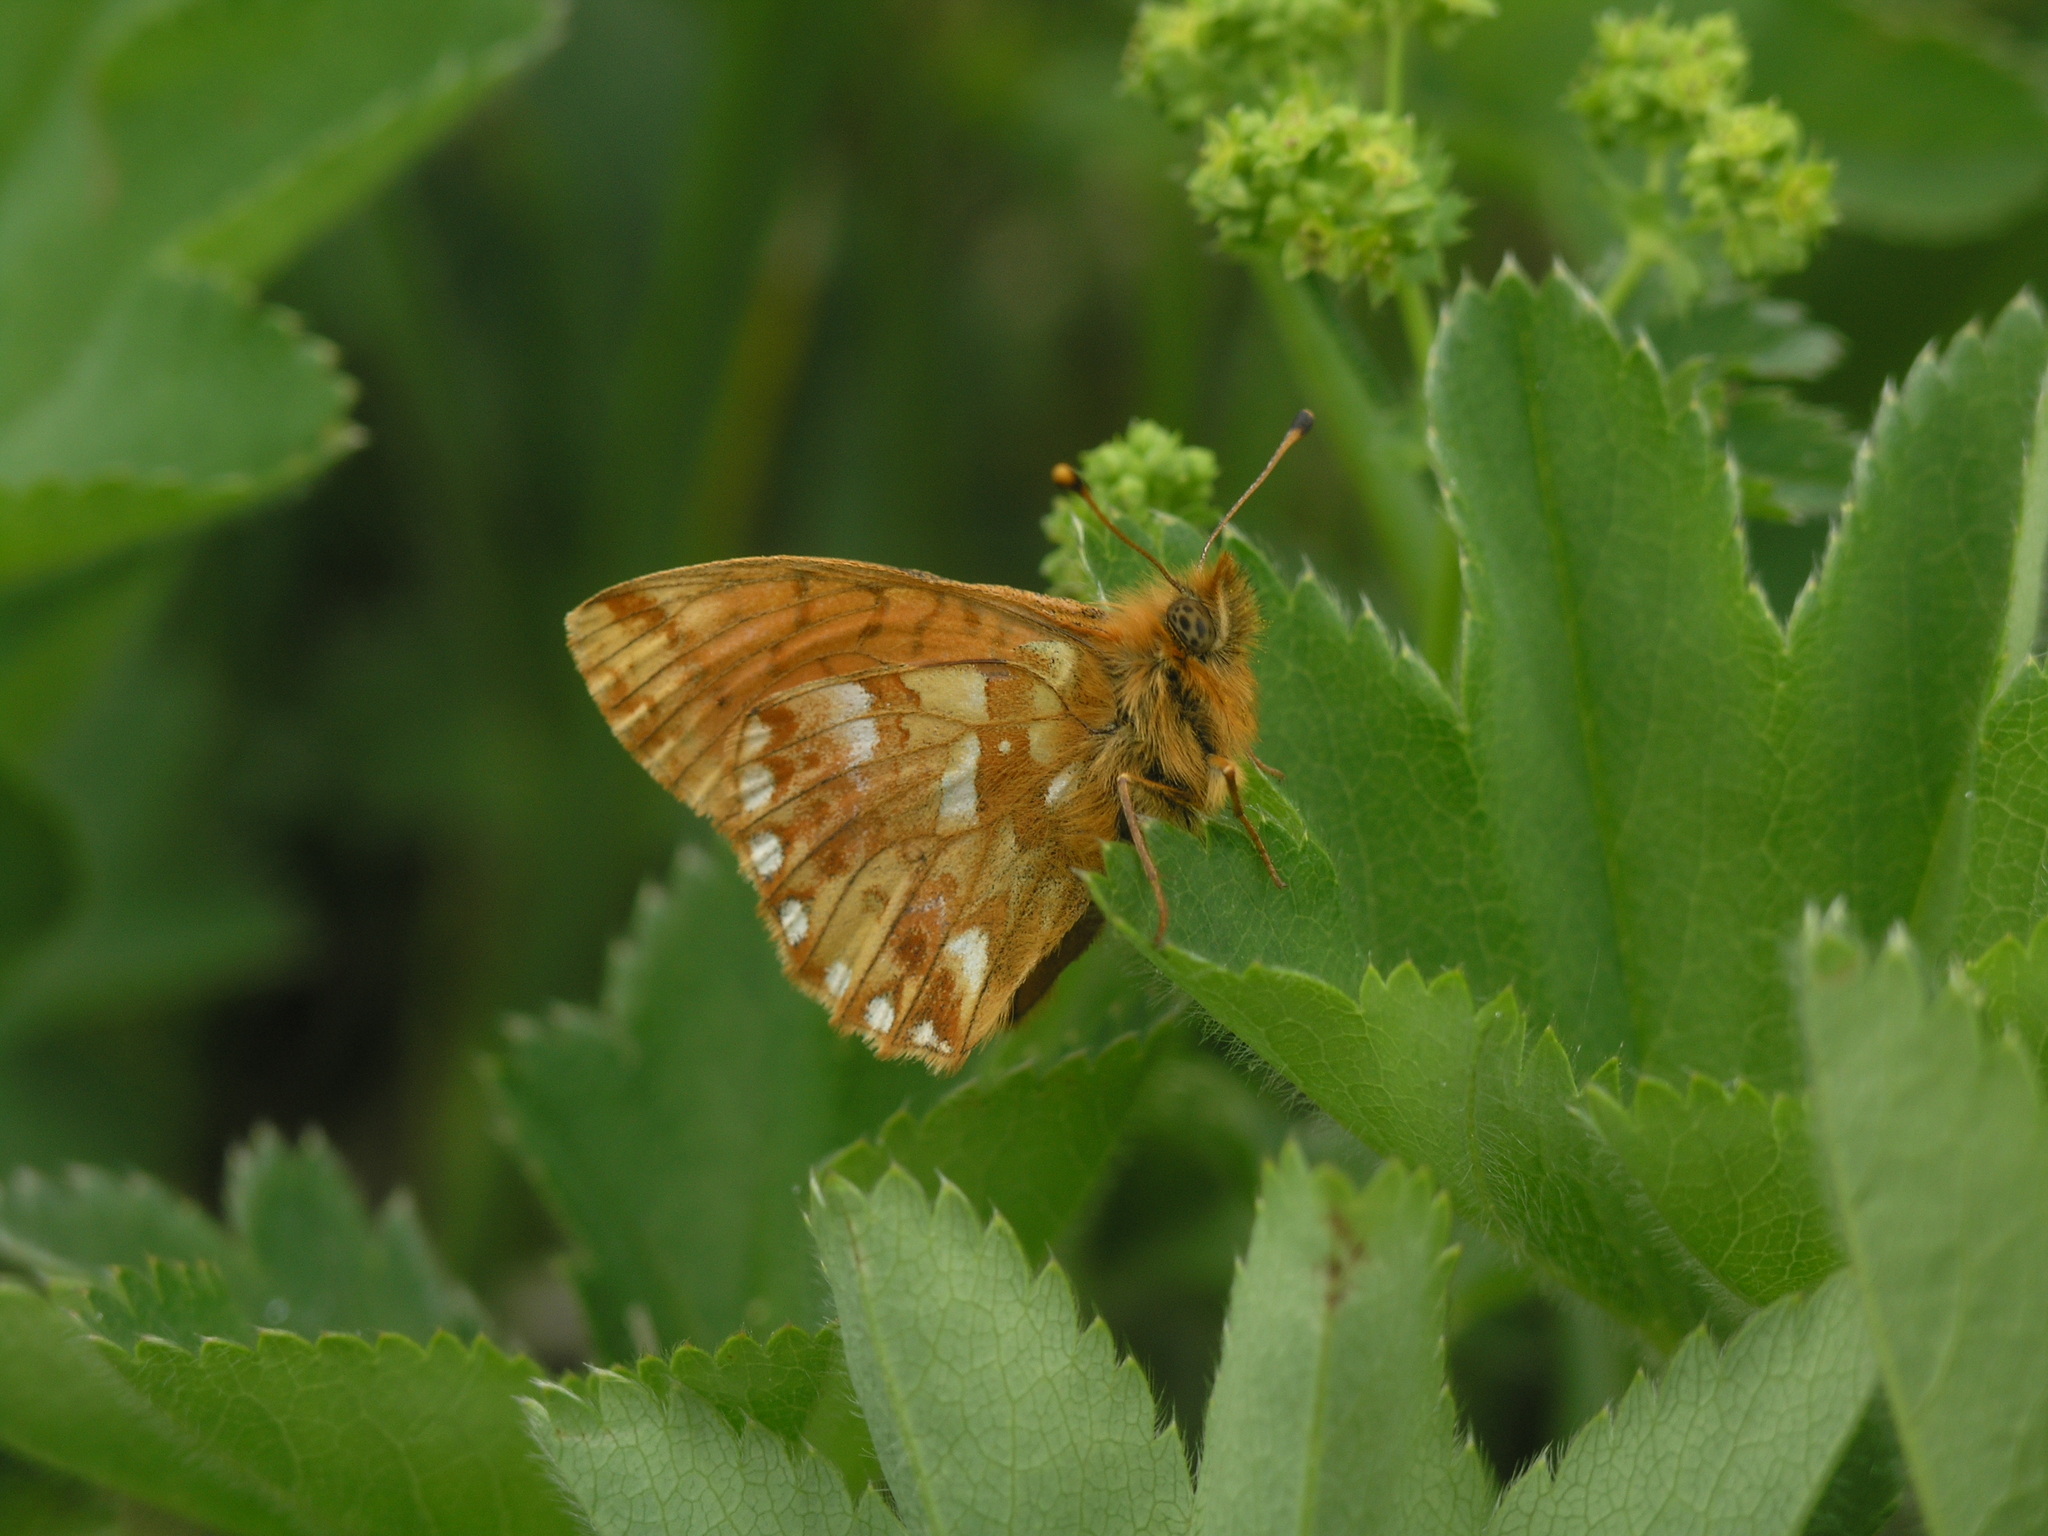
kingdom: Animalia
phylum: Arthropoda
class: Insecta
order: Lepidoptera
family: Nymphalidae
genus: Boloria
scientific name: Boloria
